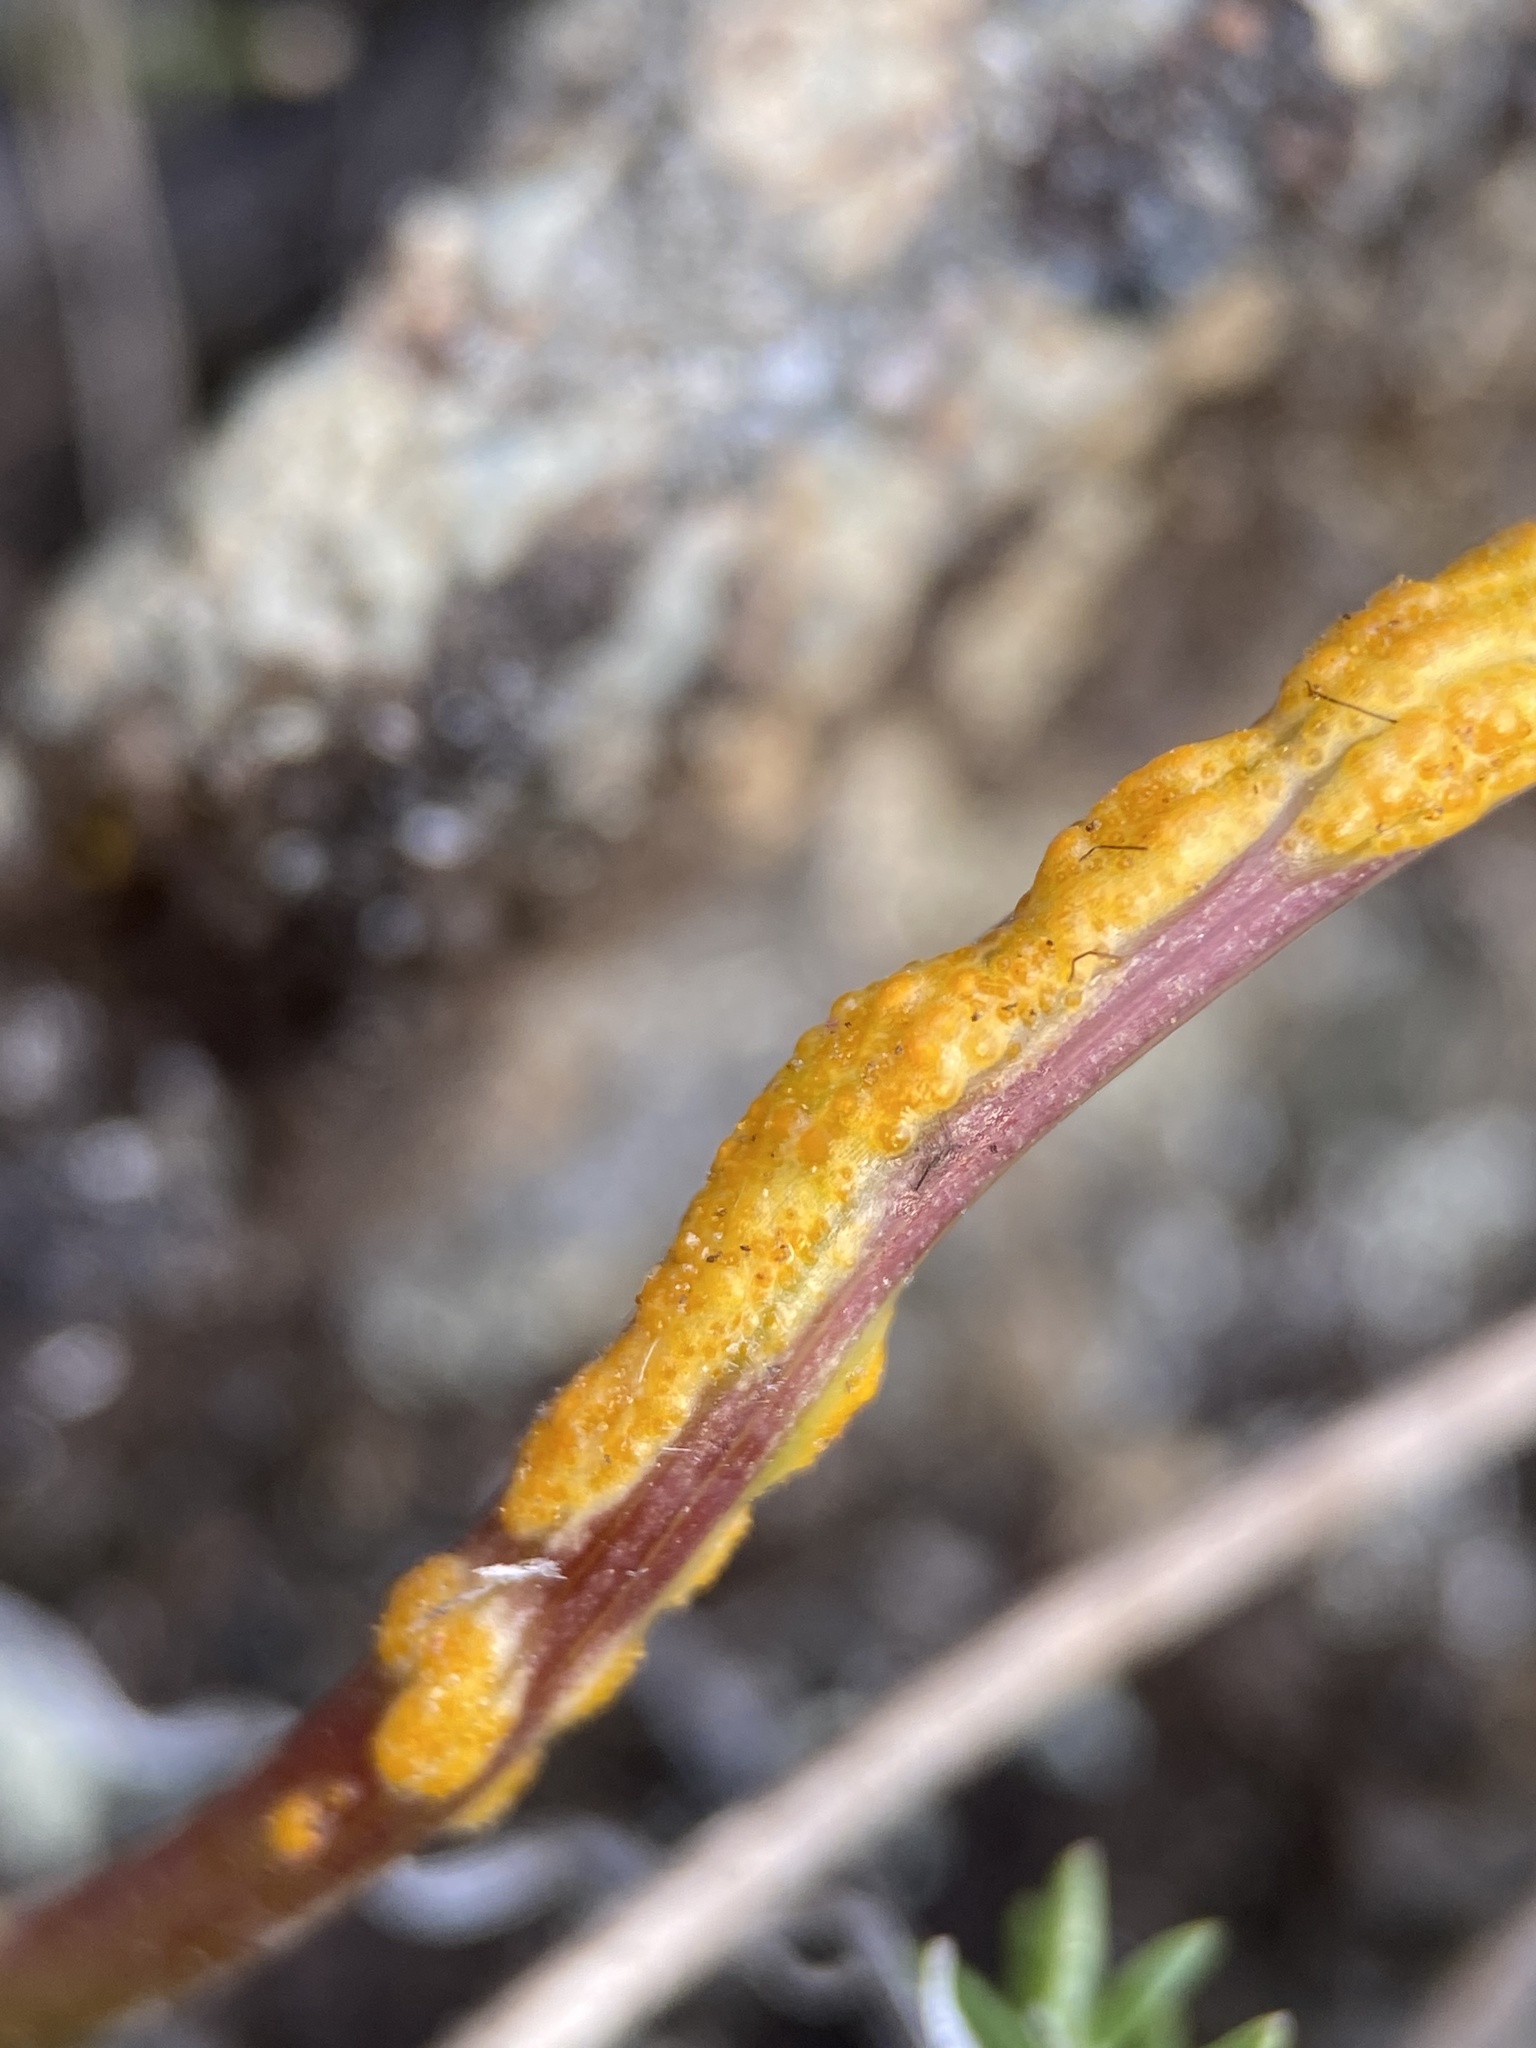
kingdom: Fungi
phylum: Basidiomycota
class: Pucciniomycetes
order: Pucciniales
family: Pucciniaceae
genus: Puccinia
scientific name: Puccinia jonesii
